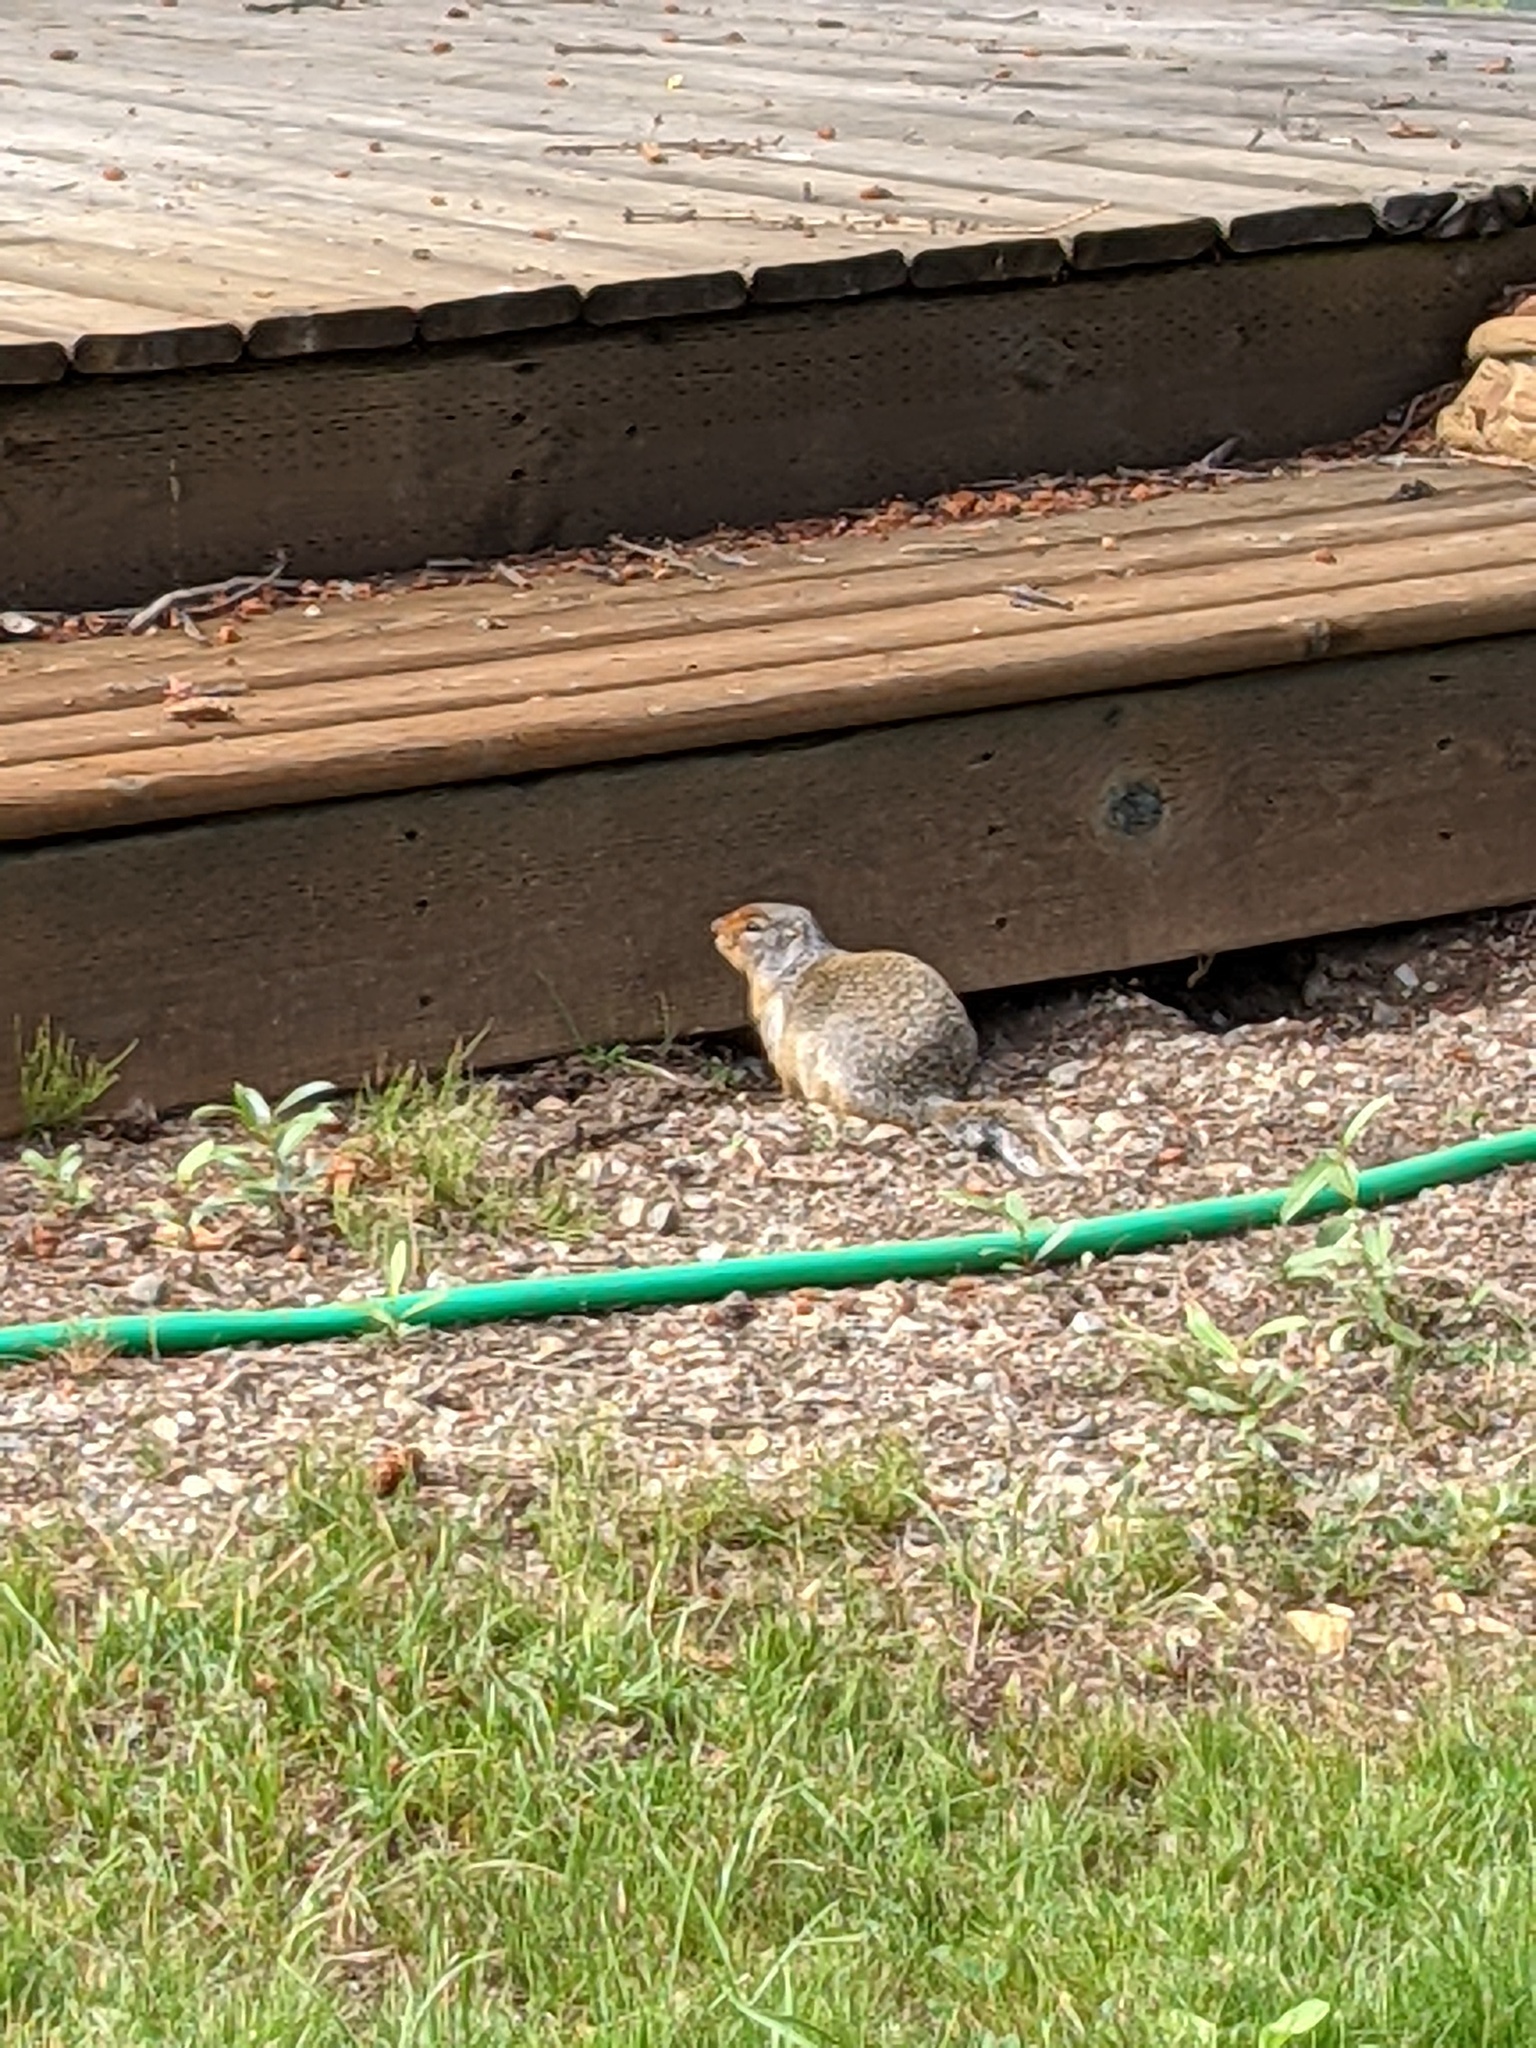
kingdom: Animalia
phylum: Chordata
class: Mammalia
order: Rodentia
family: Sciuridae
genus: Urocitellus
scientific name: Urocitellus columbianus
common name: Columbian ground squirrel
